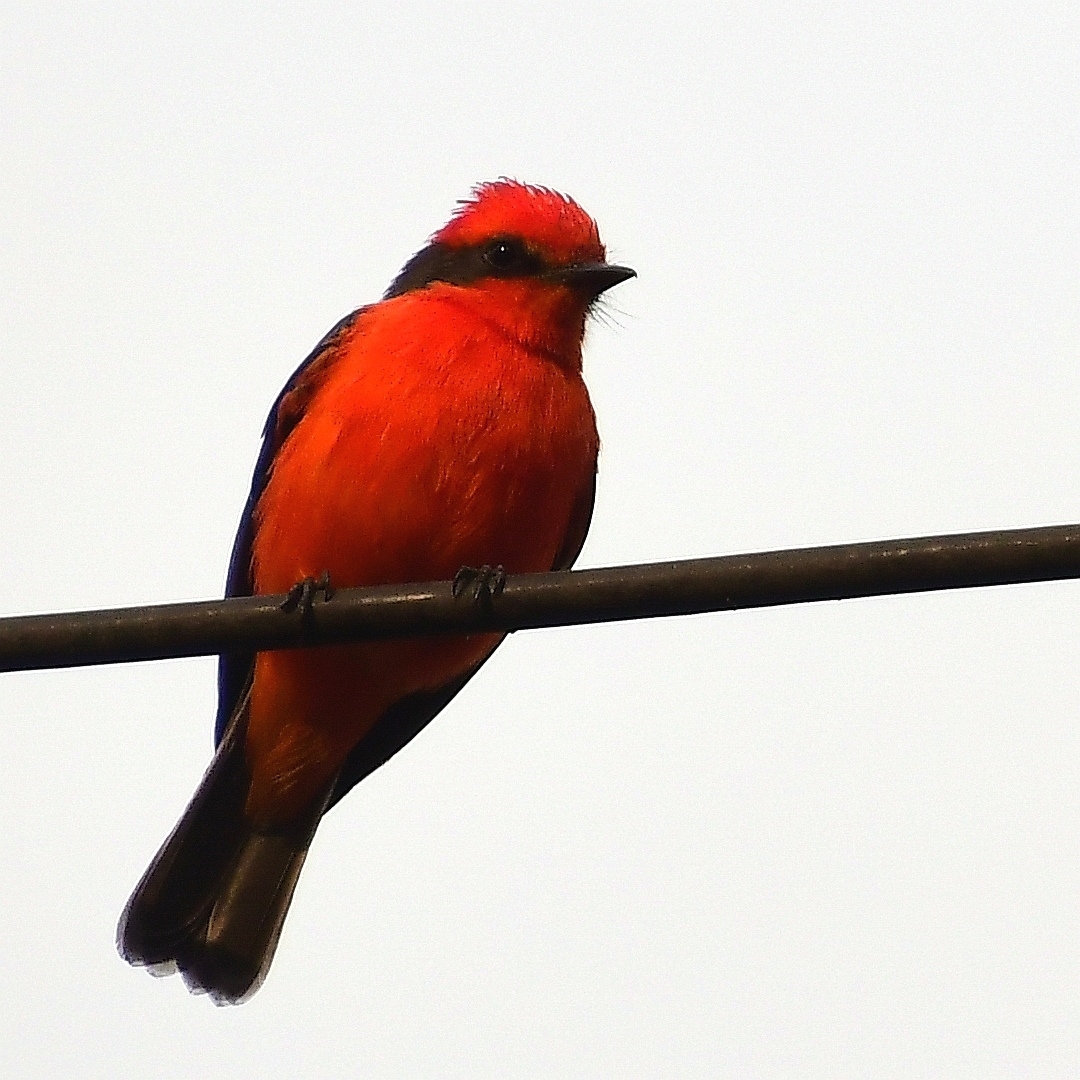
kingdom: Animalia
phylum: Chordata
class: Aves
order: Passeriformes
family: Tyrannidae
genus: Pyrocephalus
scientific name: Pyrocephalus rubinus
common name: Vermilion flycatcher
